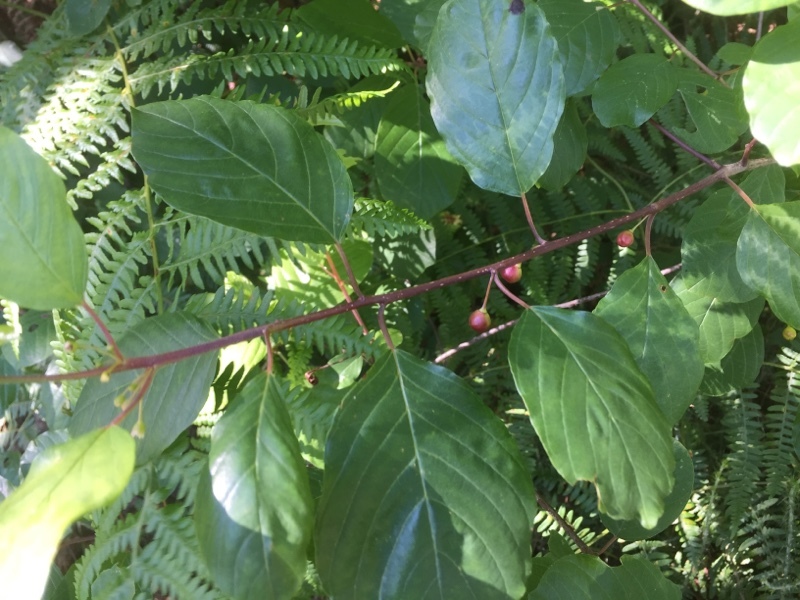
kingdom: Plantae
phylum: Tracheophyta
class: Magnoliopsida
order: Rosales
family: Rhamnaceae
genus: Frangula
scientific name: Frangula alnus
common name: Alder buckthorn
